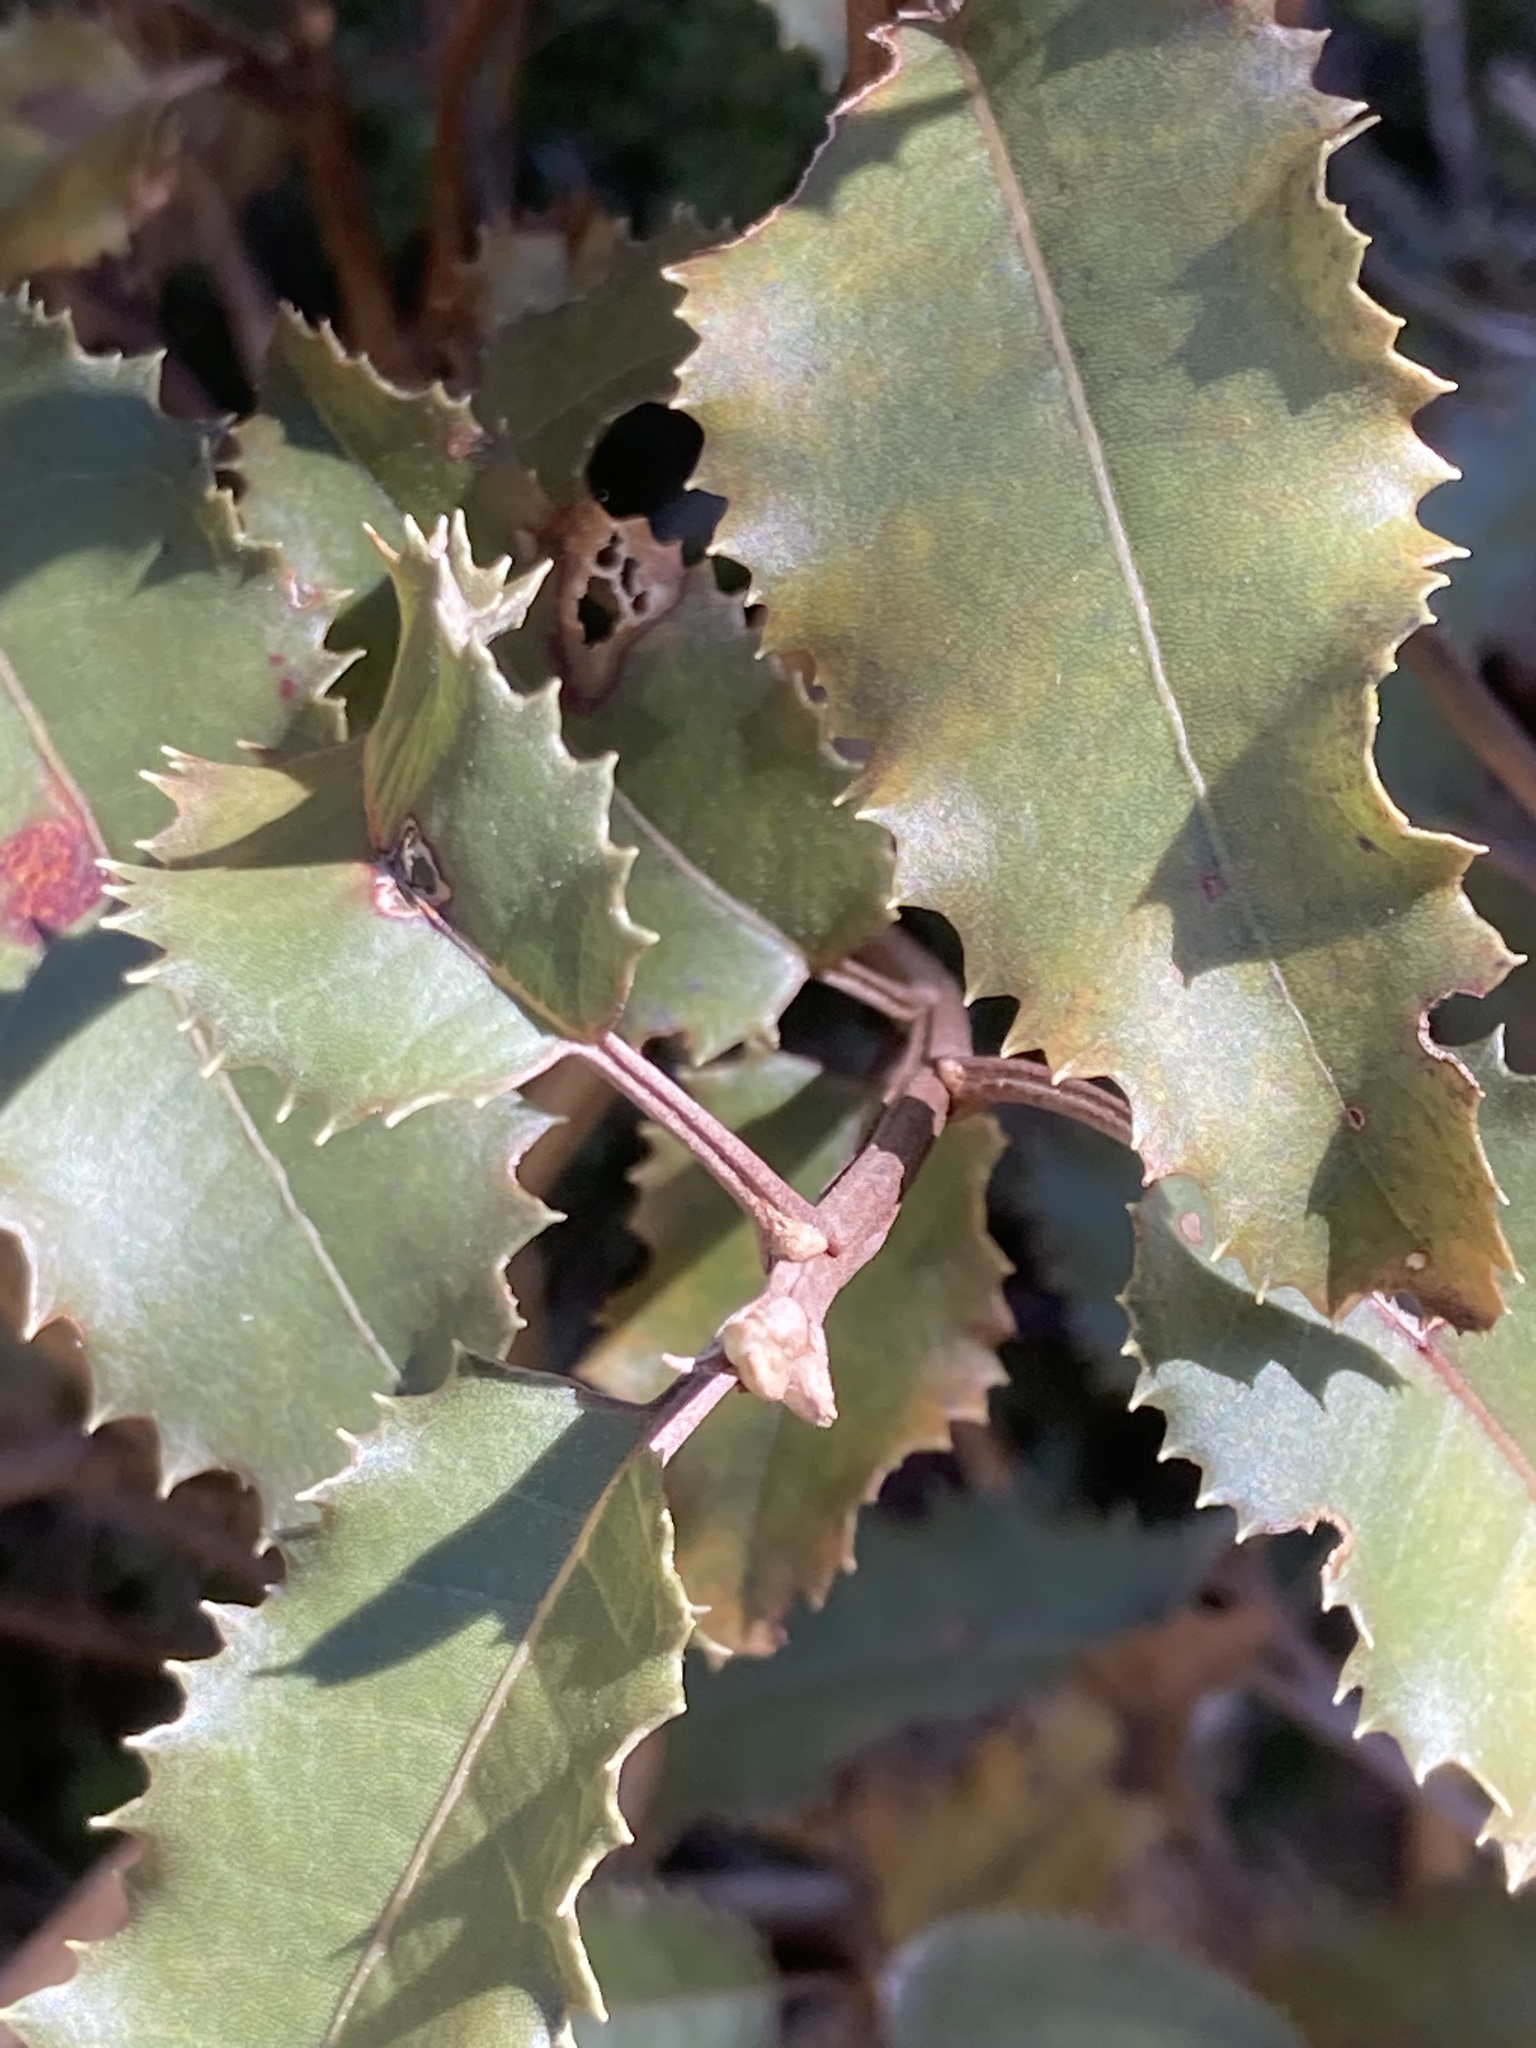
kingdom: Plantae
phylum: Tracheophyta
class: Magnoliopsida
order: Asterales
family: Asteraceae
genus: Olearia
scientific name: Olearia ilicifolia
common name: Maori-holly
